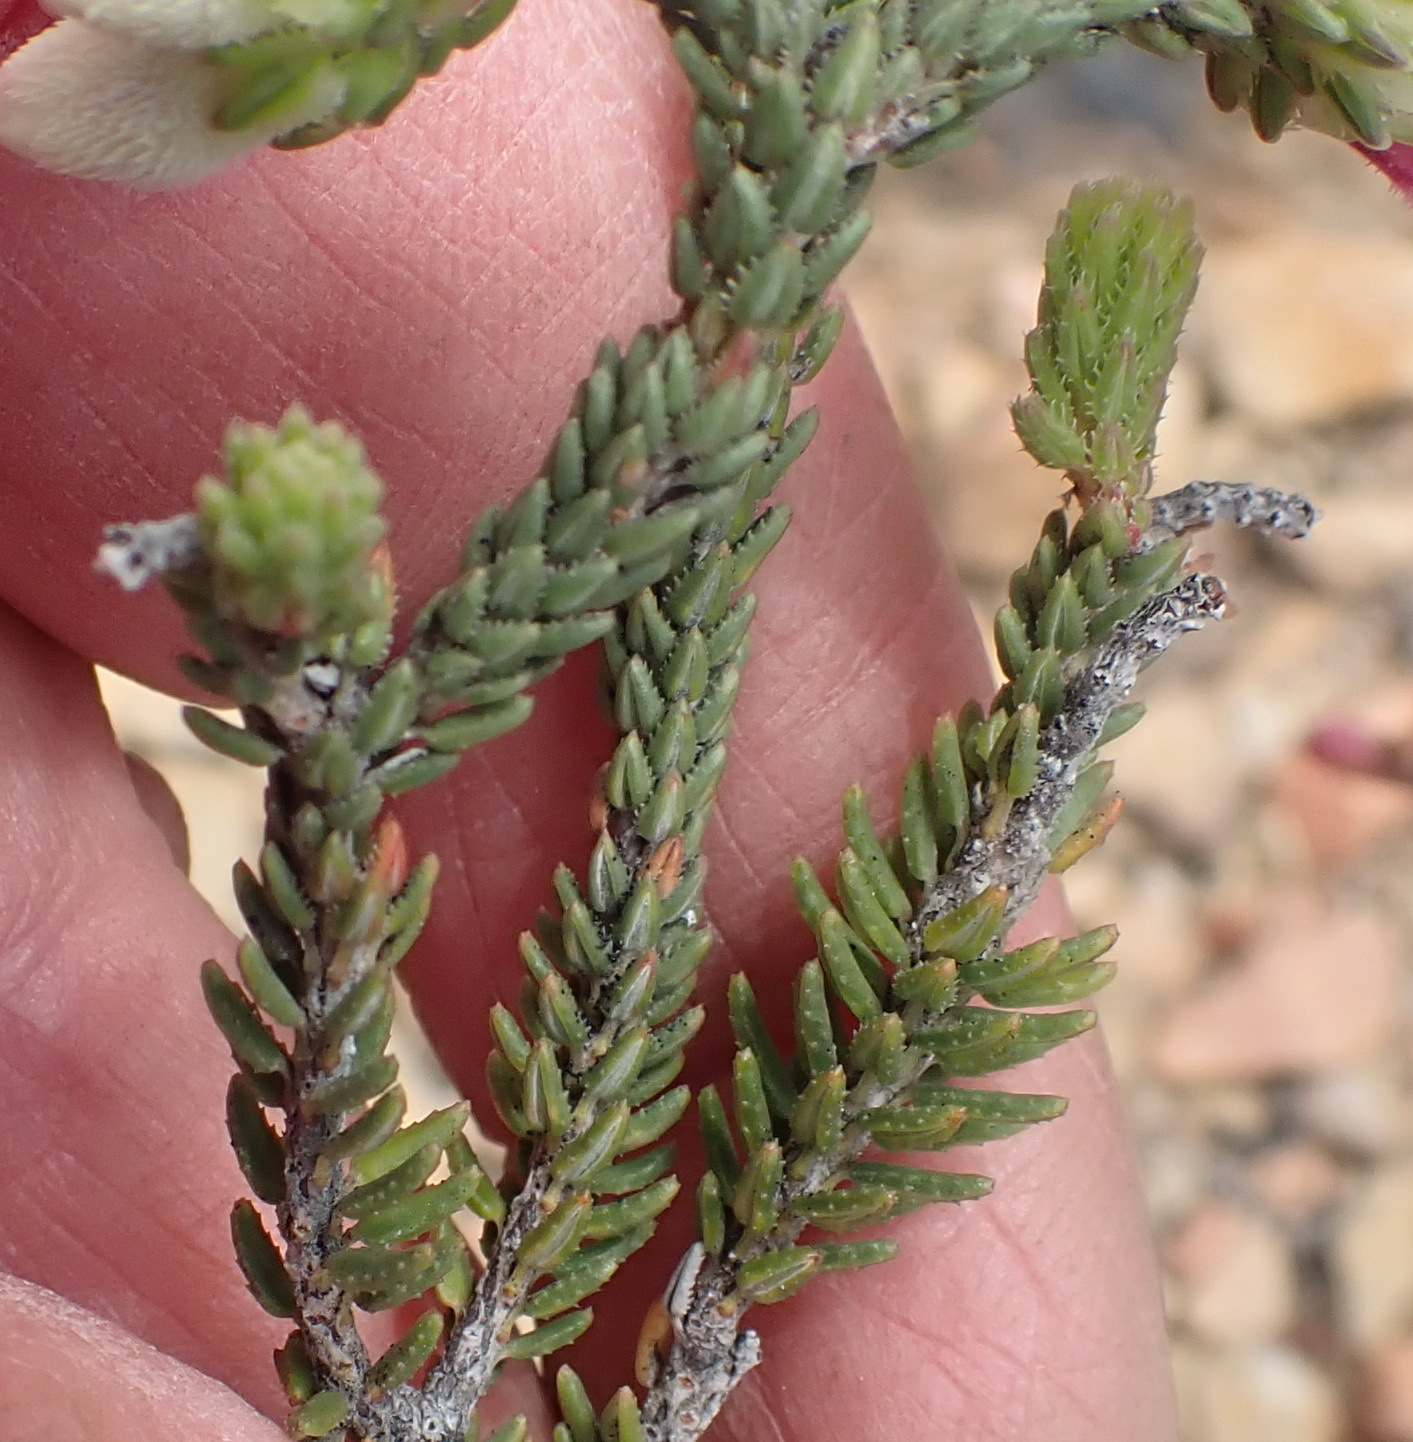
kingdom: Plantae
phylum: Tracheophyta
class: Magnoliopsida
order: Ericales
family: Ericaceae
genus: Erica
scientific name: Erica pectinifolia
